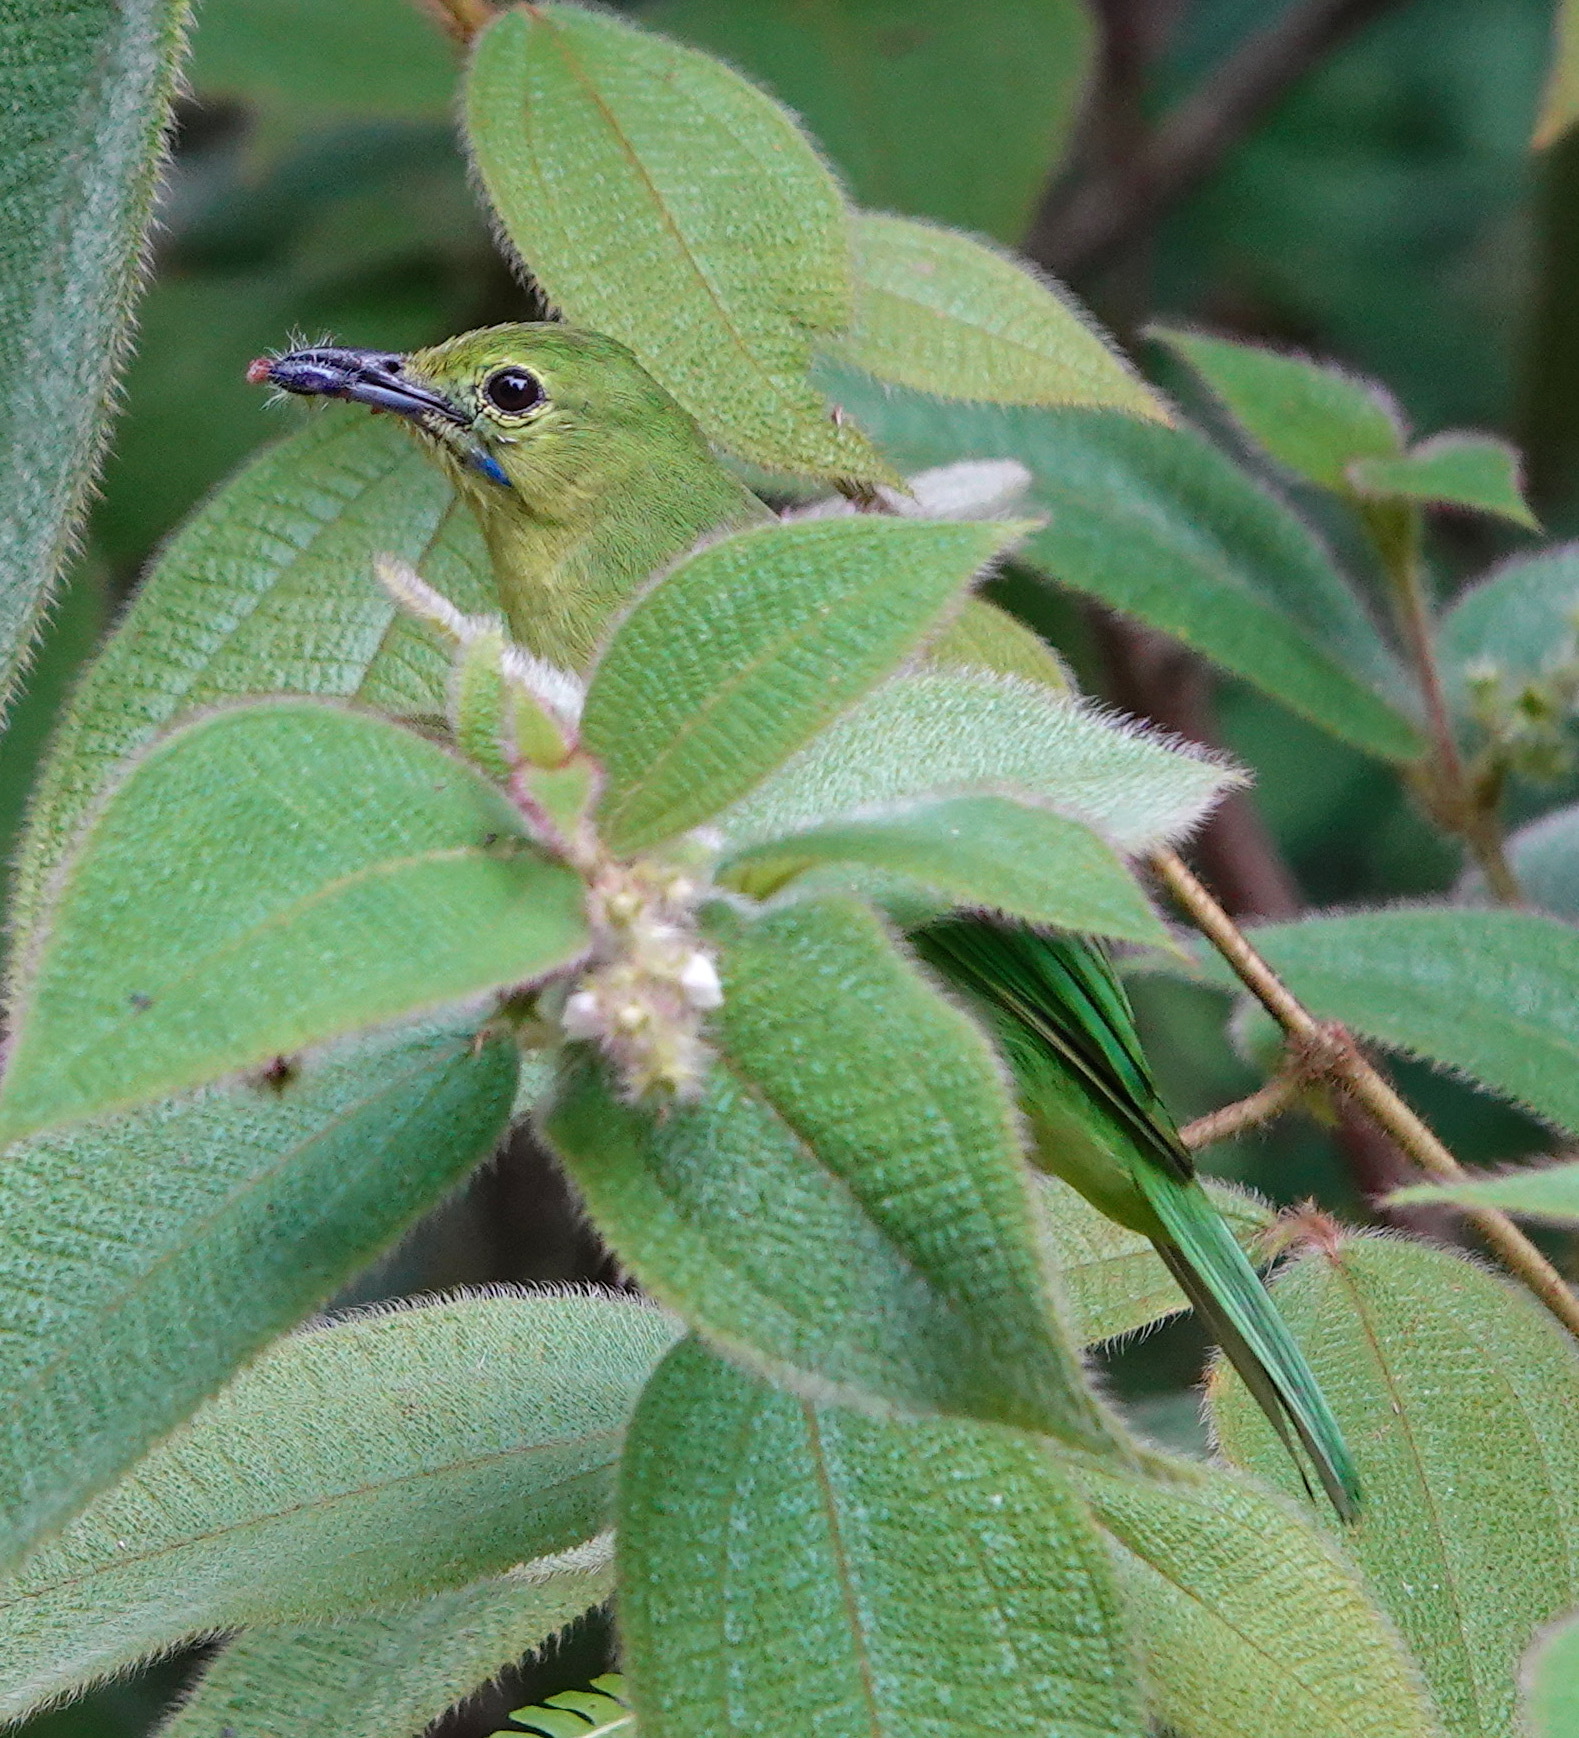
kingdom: Animalia
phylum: Chordata
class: Aves
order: Passeriformes
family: Chloropseidae
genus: Chloropsis
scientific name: Chloropsis cyanopogon
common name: Lesser green leafbird
